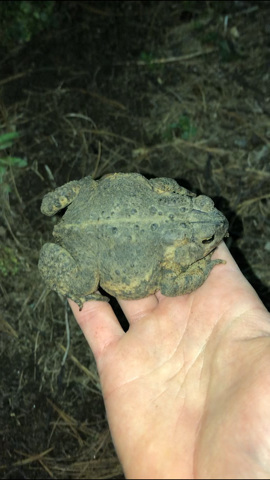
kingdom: Animalia
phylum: Chordata
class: Amphibia
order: Anura
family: Bufonidae
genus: Anaxyrus
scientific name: Anaxyrus americanus
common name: American toad
